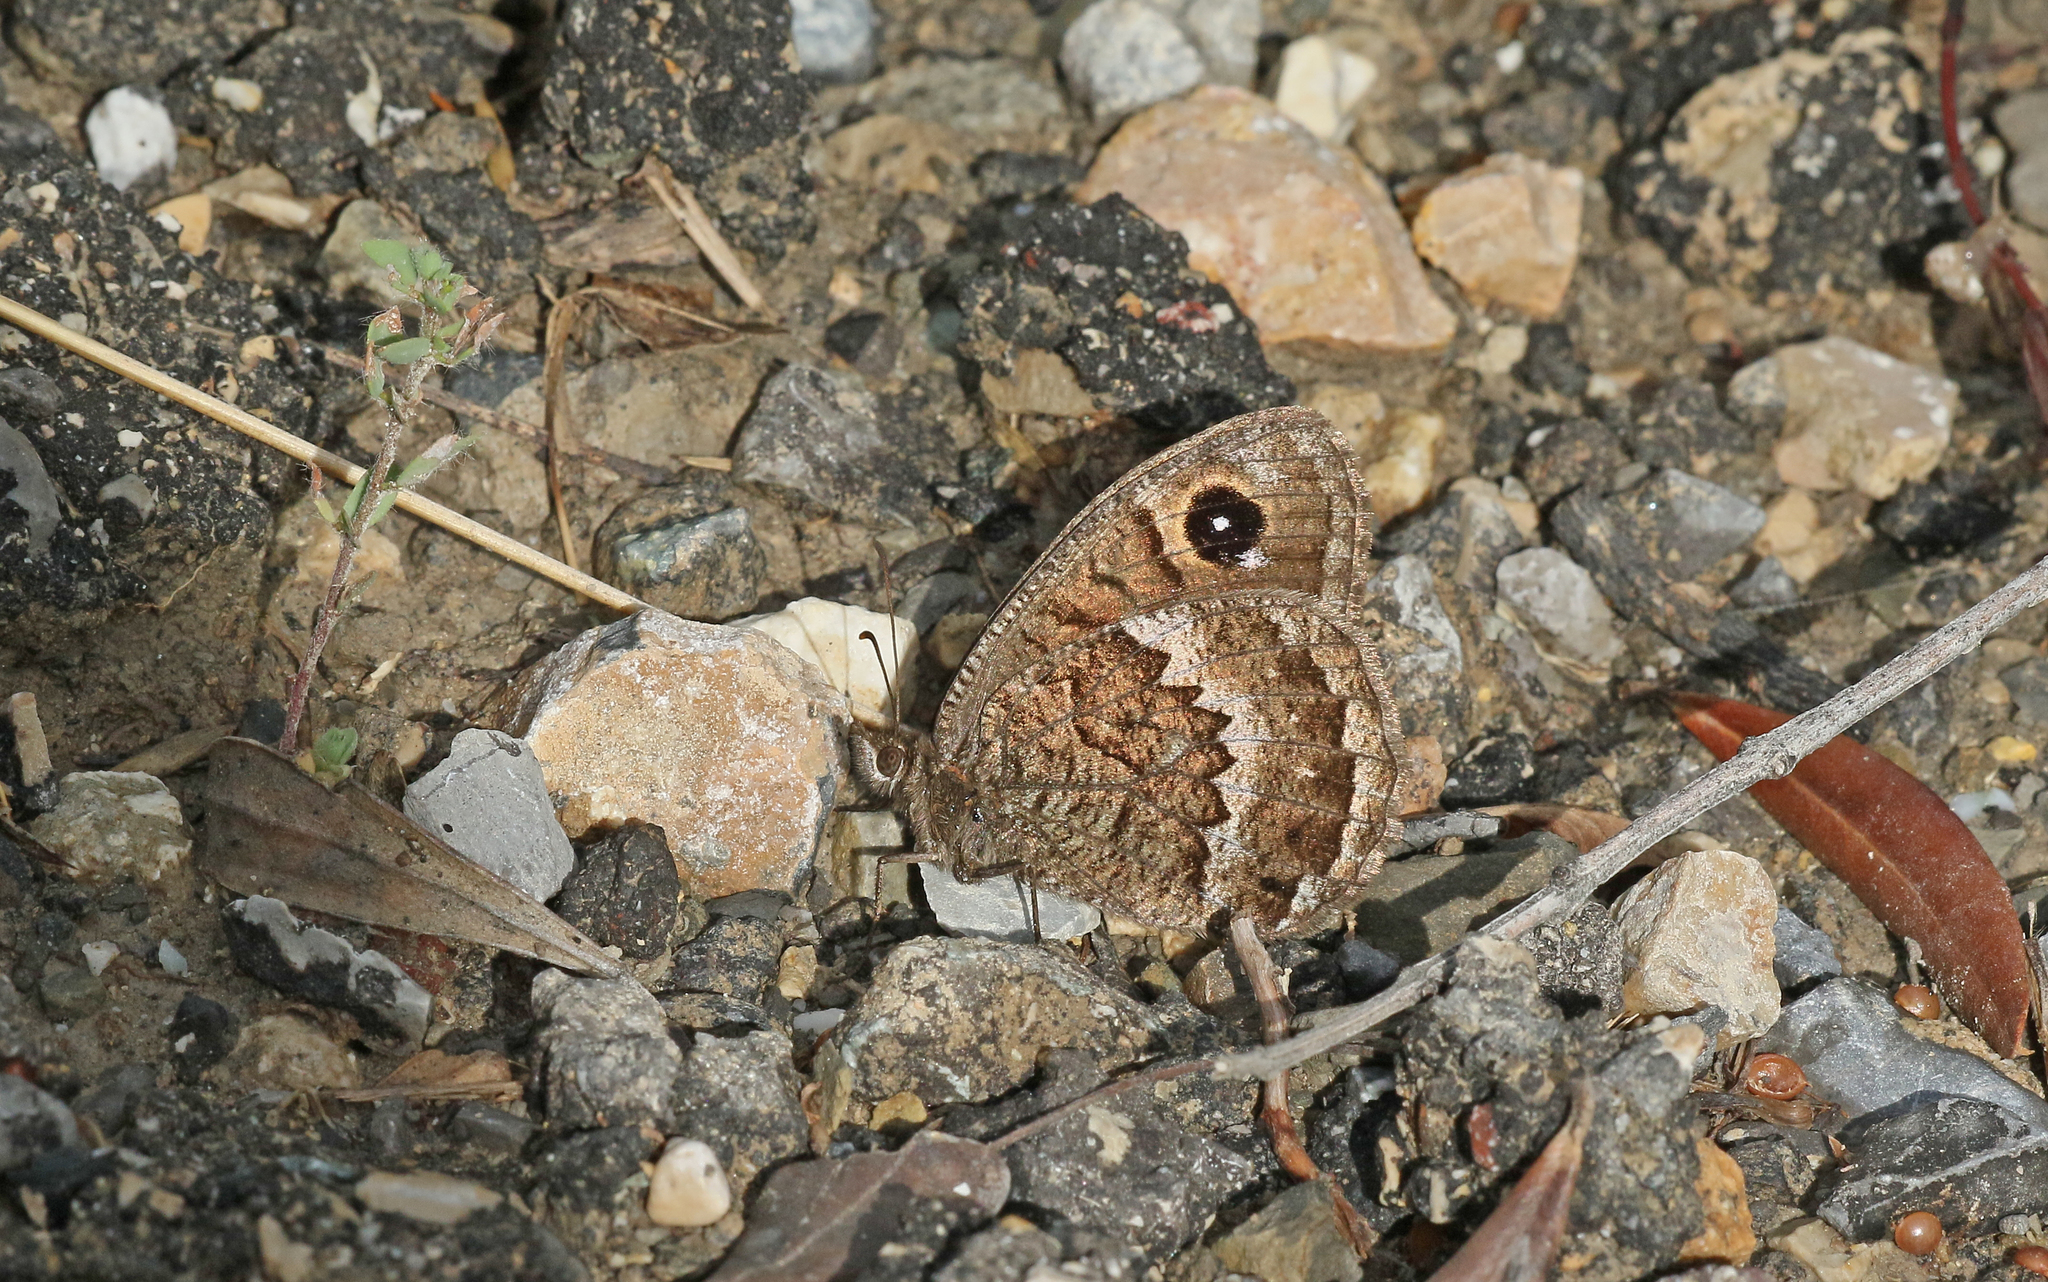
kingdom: Animalia
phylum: Arthropoda
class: Insecta
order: Lepidoptera
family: Nymphalidae
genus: Satyrus
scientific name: Satyrus actaea
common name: Black satyr
